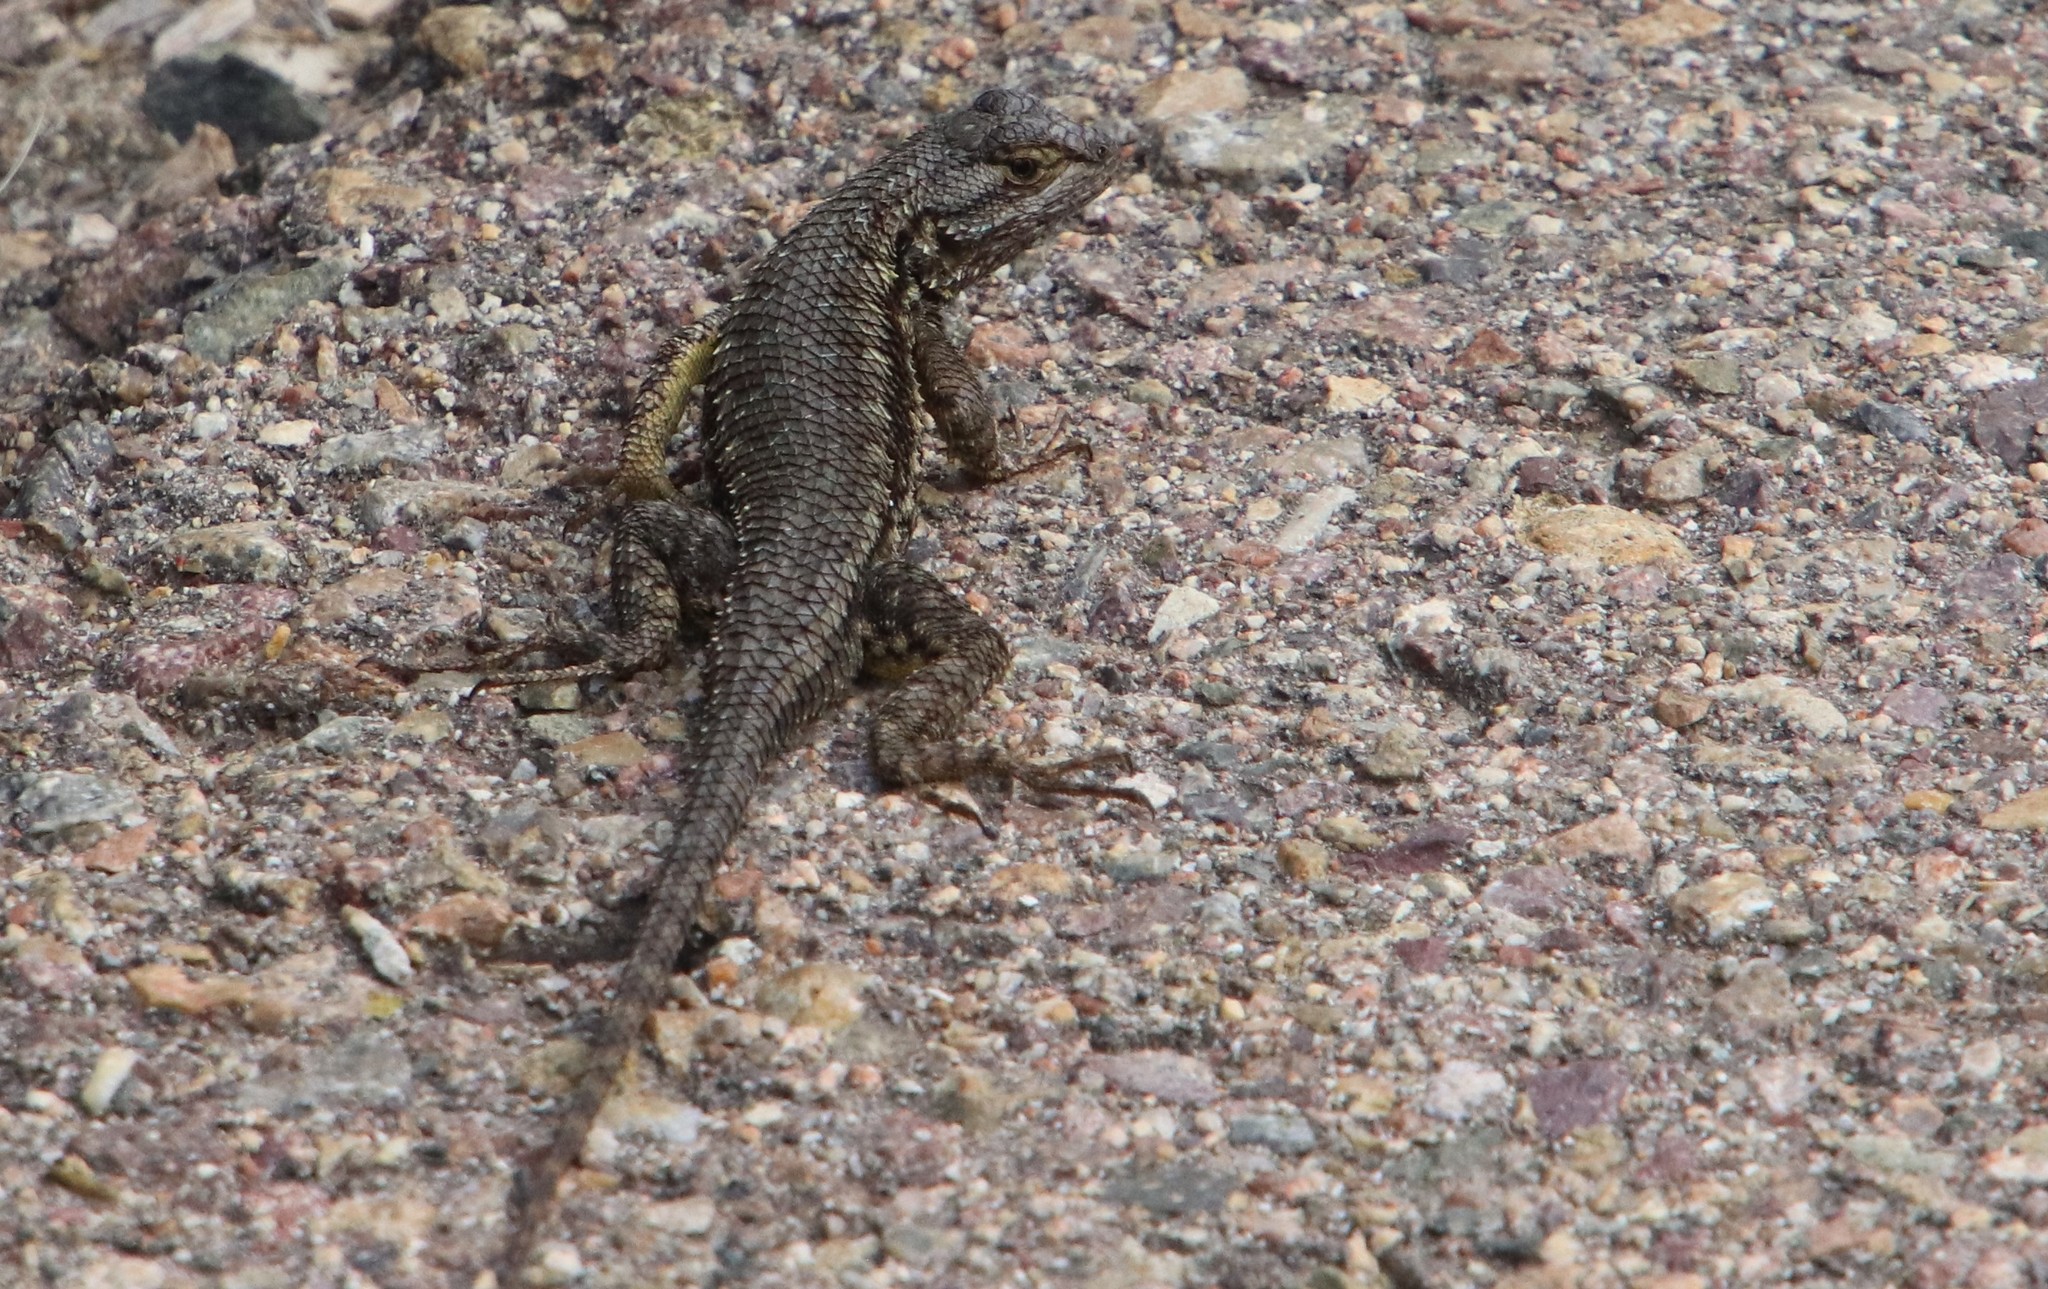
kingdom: Animalia
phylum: Chordata
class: Squamata
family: Phrynosomatidae
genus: Sceloporus
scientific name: Sceloporus occidentalis
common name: Western fence lizard
